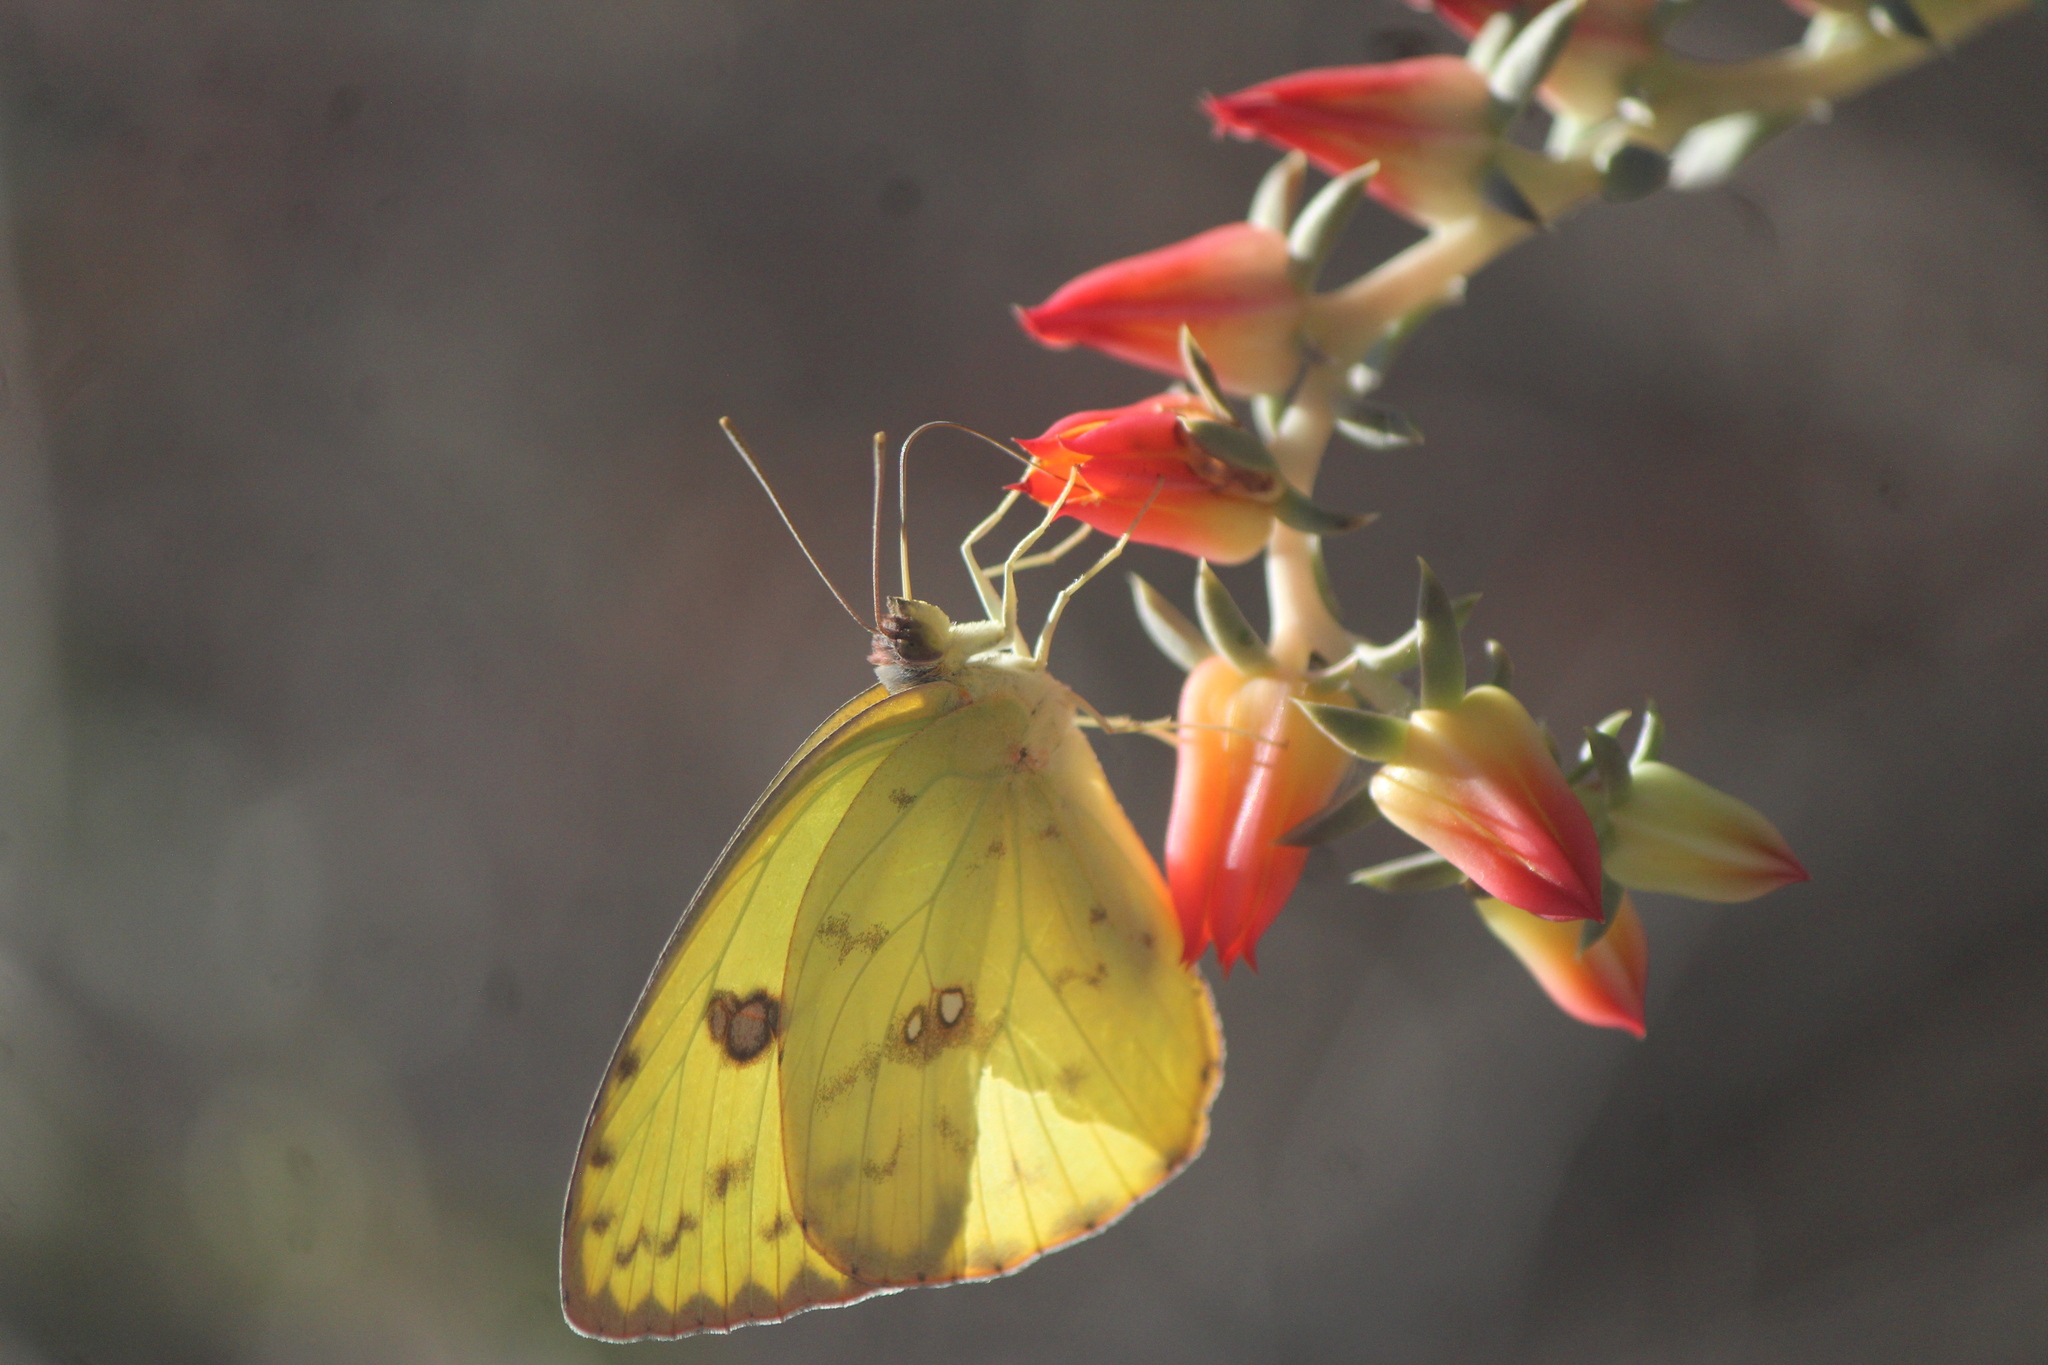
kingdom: Animalia
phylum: Arthropoda
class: Insecta
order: Lepidoptera
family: Pieridae
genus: Phoebis
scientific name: Phoebis marcellina
